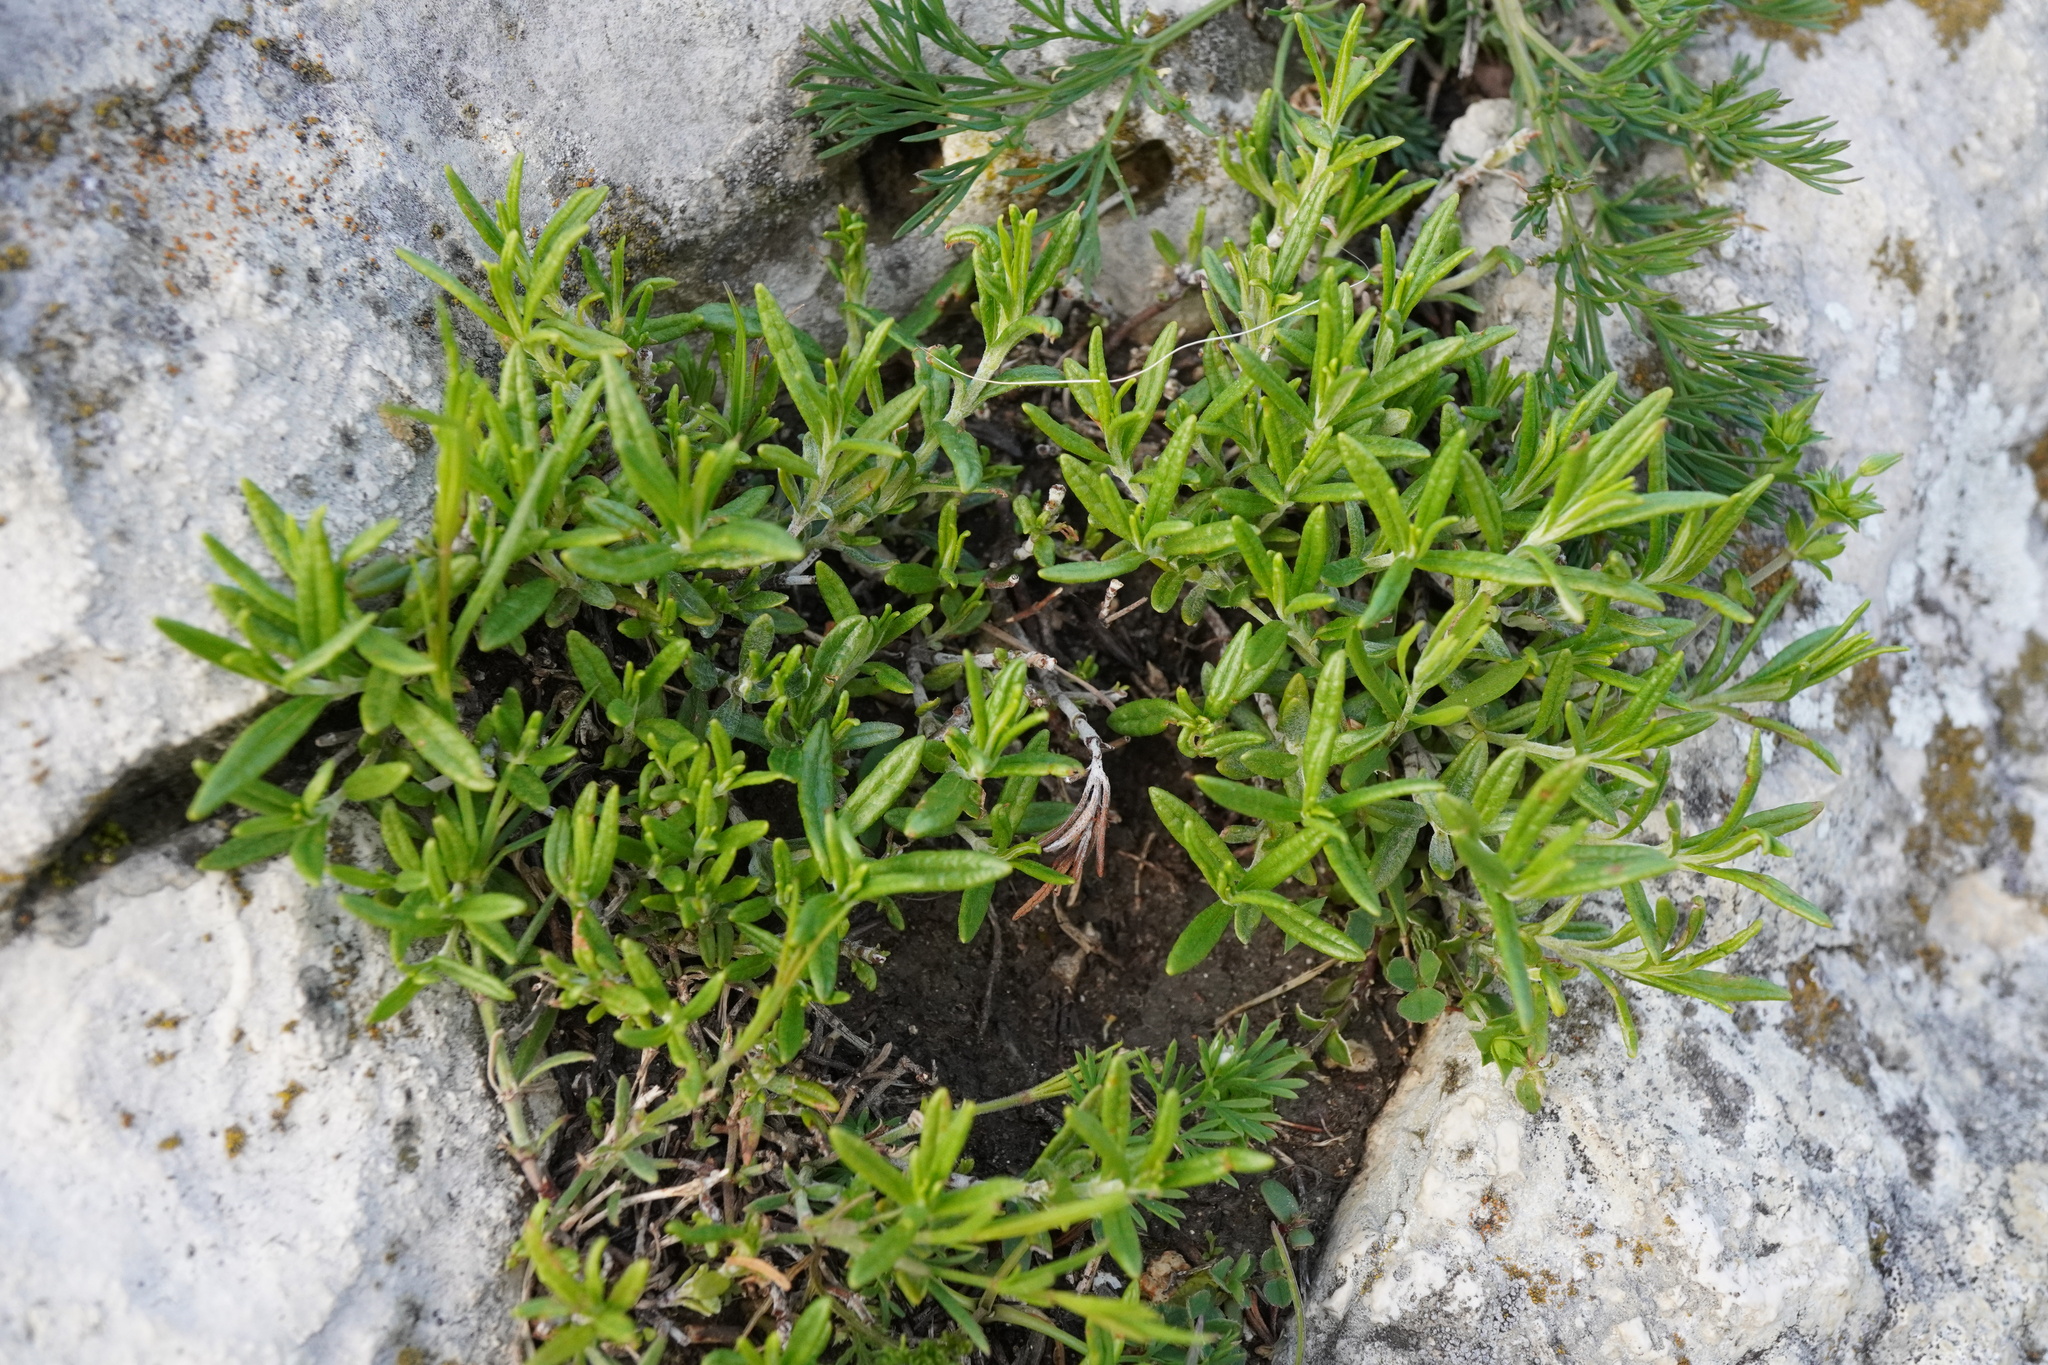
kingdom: Plantae
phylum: Tracheophyta
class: Magnoliopsida
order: Lamiales
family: Lamiaceae
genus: Teucrium
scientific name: Teucrium montanum
